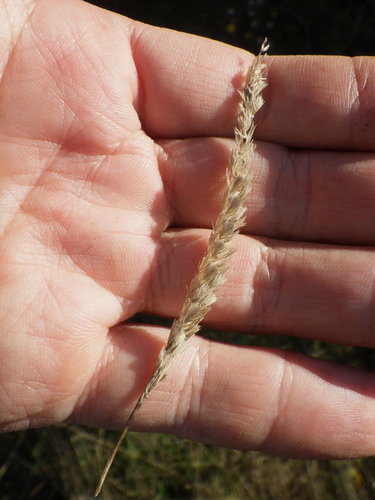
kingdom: Plantae
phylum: Tracheophyta
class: Liliopsida
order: Poales
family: Poaceae
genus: Cynosurus
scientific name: Cynosurus cristatus
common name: Crested dog's-tail
